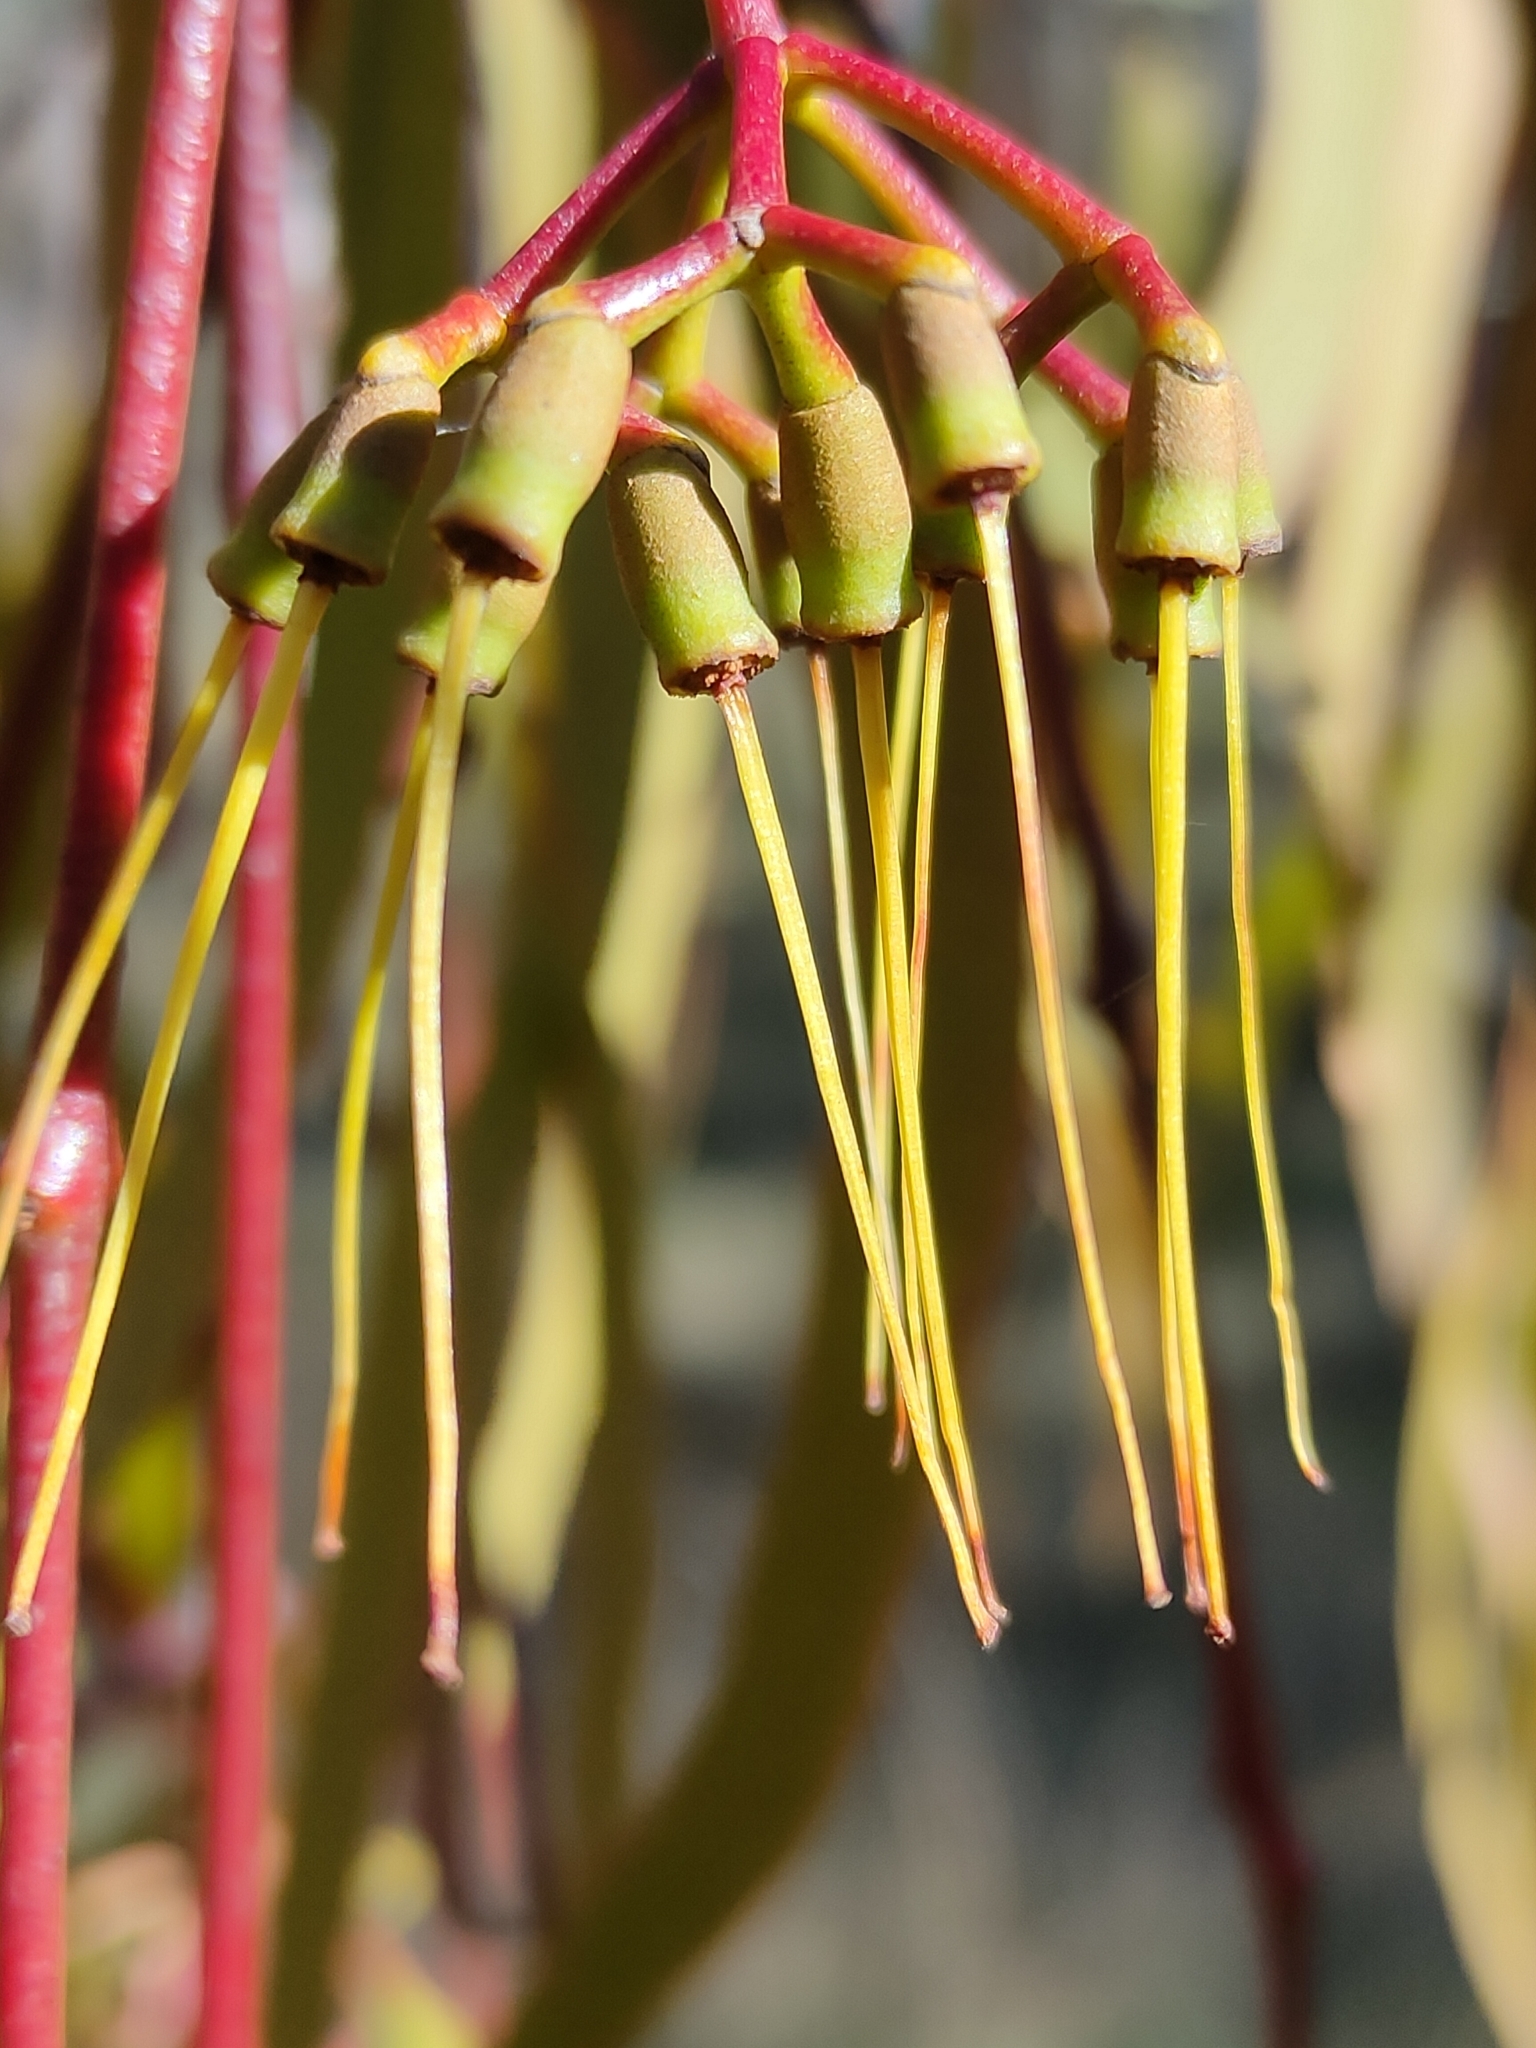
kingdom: Plantae
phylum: Tracheophyta
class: Magnoliopsida
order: Santalales
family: Loranthaceae
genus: Amyema
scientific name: Amyema miquelii
